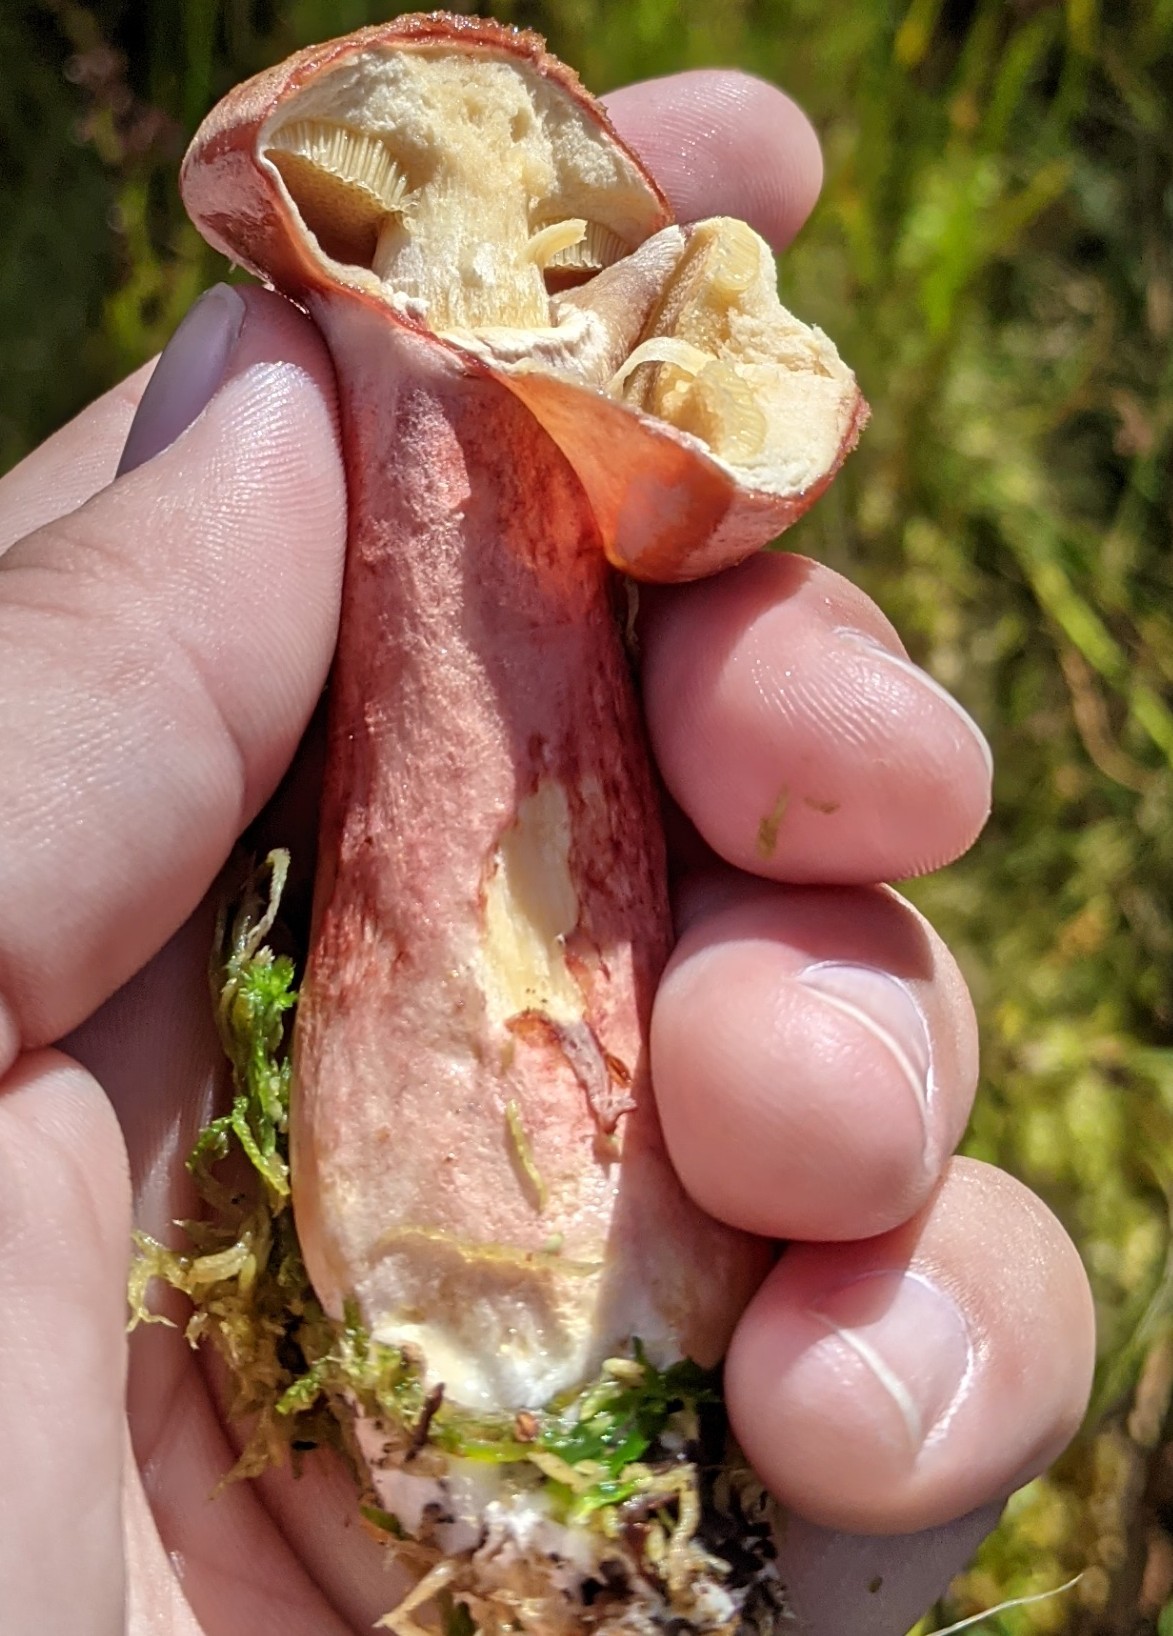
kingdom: Fungi
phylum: Basidiomycota
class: Agaricomycetes
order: Boletales
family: Suillaceae
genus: Boletinus
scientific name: Boletinus spectabilis
